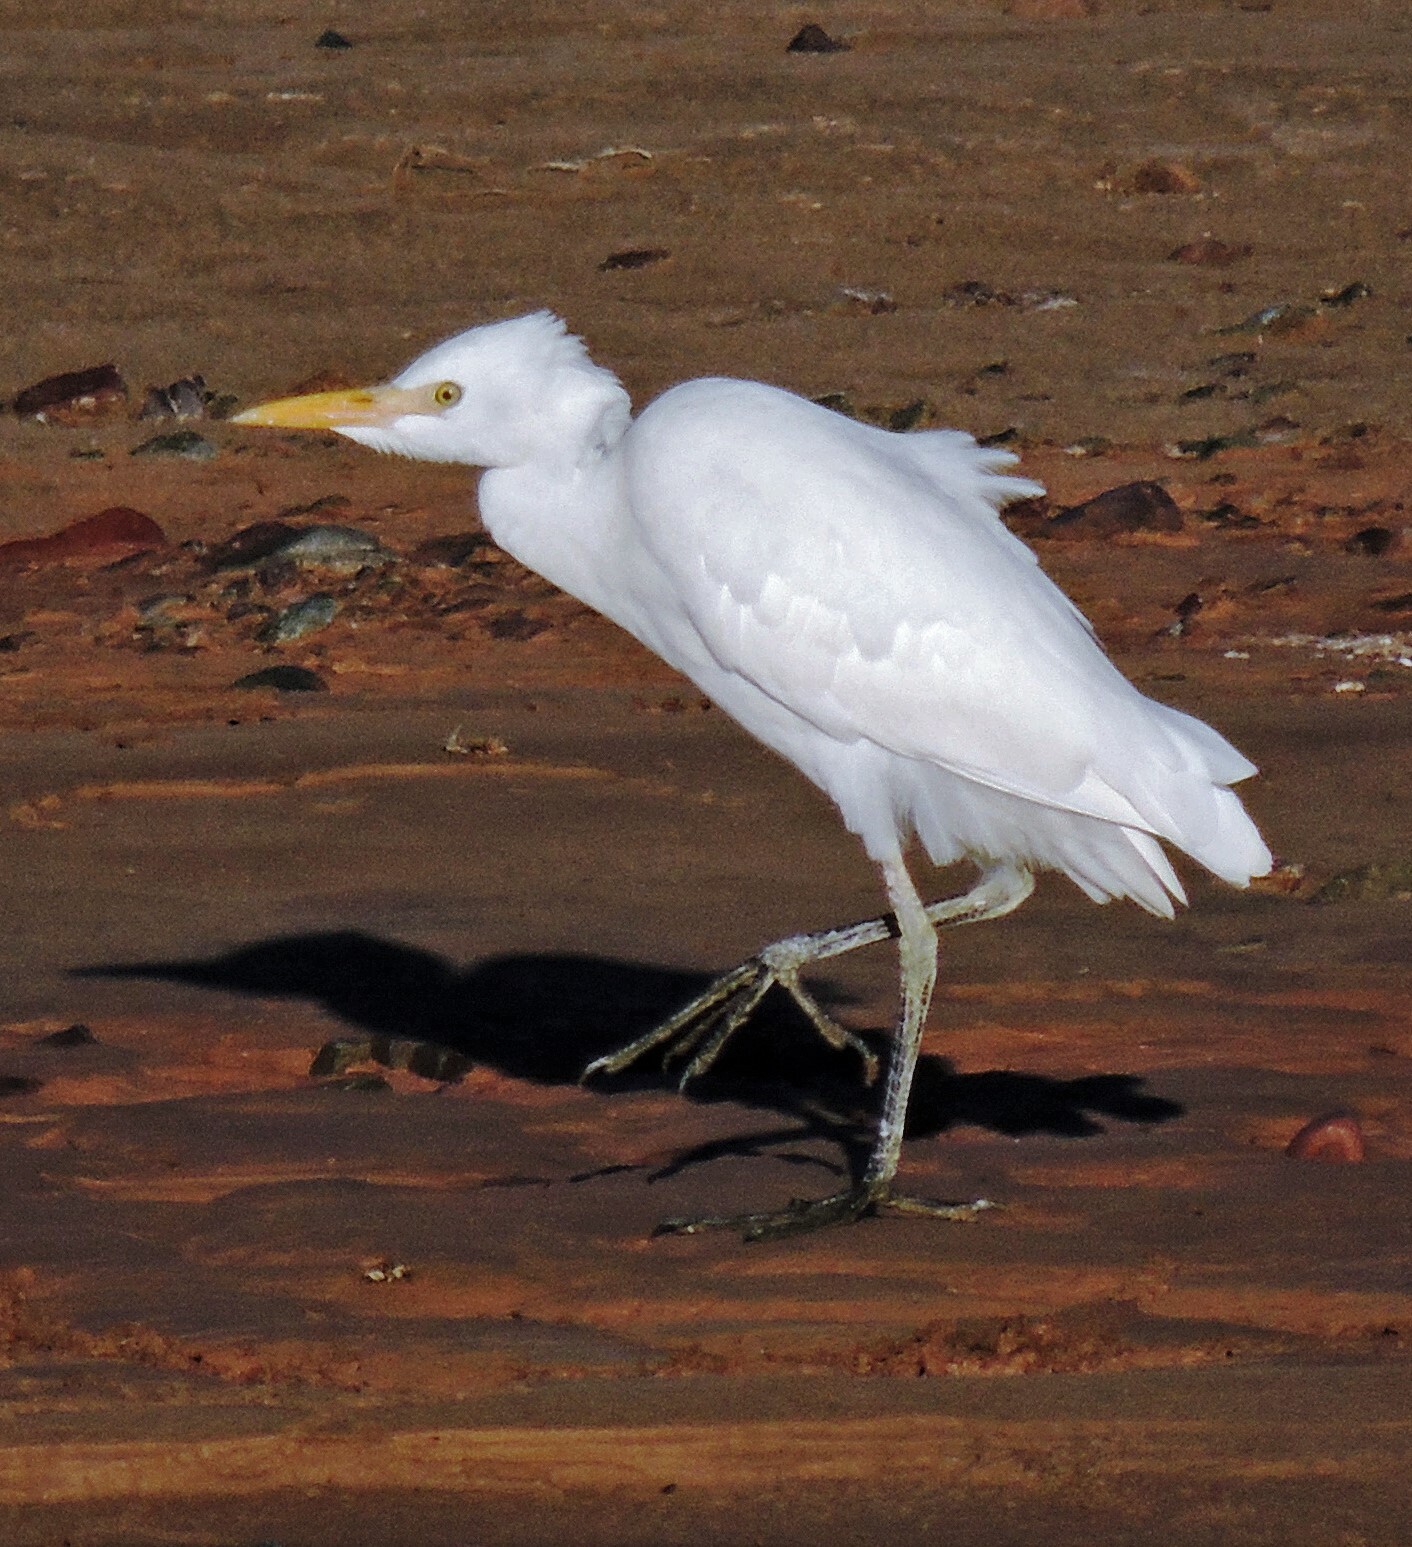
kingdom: Animalia
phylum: Chordata
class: Aves
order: Pelecaniformes
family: Ardeidae
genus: Bubulcus
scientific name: Bubulcus ibis
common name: Cattle egret
